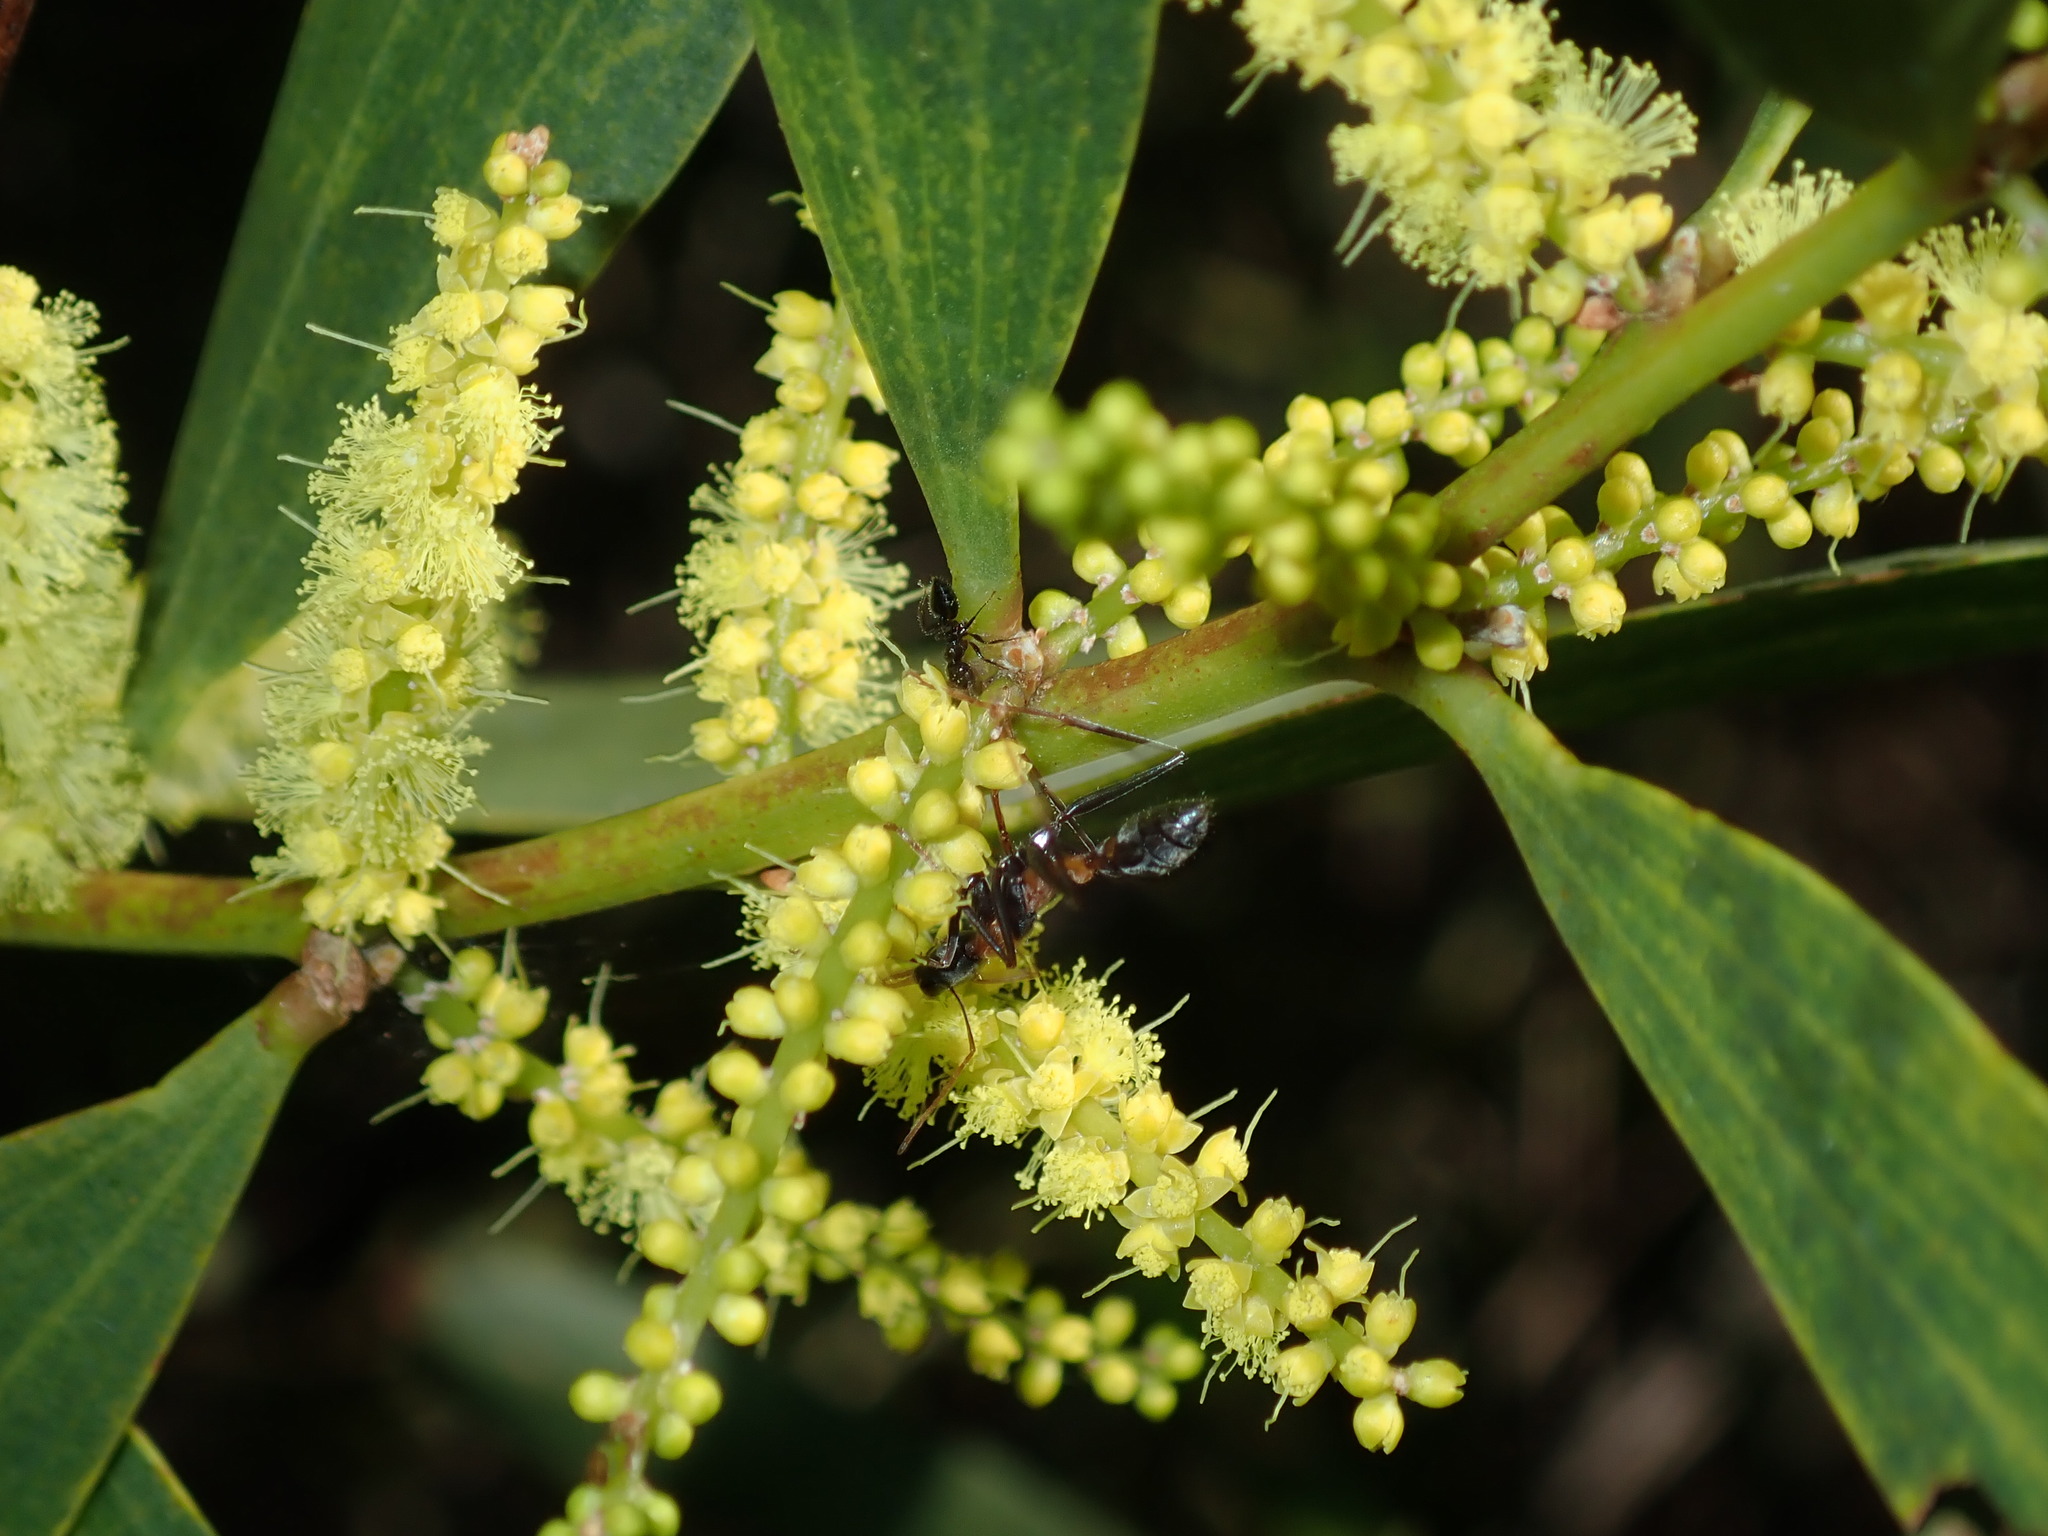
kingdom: Animalia
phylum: Arthropoda
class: Insecta
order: Hymenoptera
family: Formicidae
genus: Myrmecia
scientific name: Myrmecia nigrocincta
